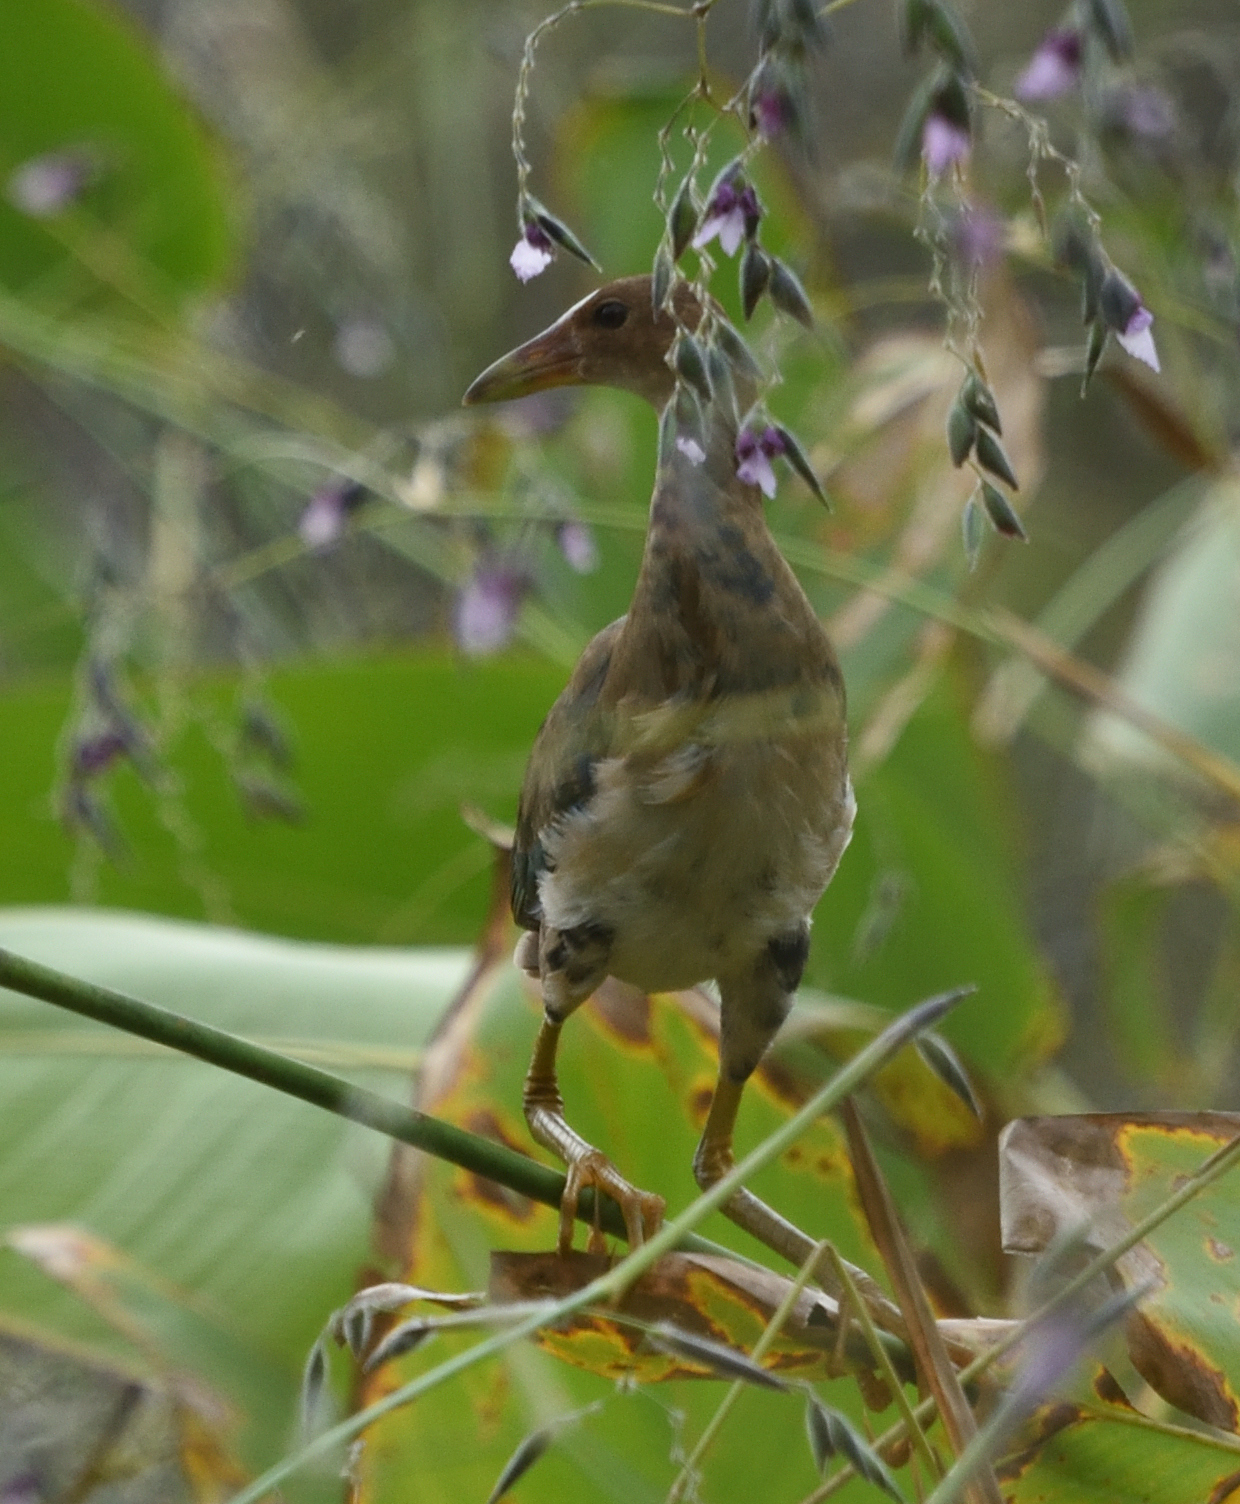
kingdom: Animalia
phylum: Chordata
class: Aves
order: Gruiformes
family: Rallidae
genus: Porphyrio
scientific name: Porphyrio martinica
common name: Purple gallinule
